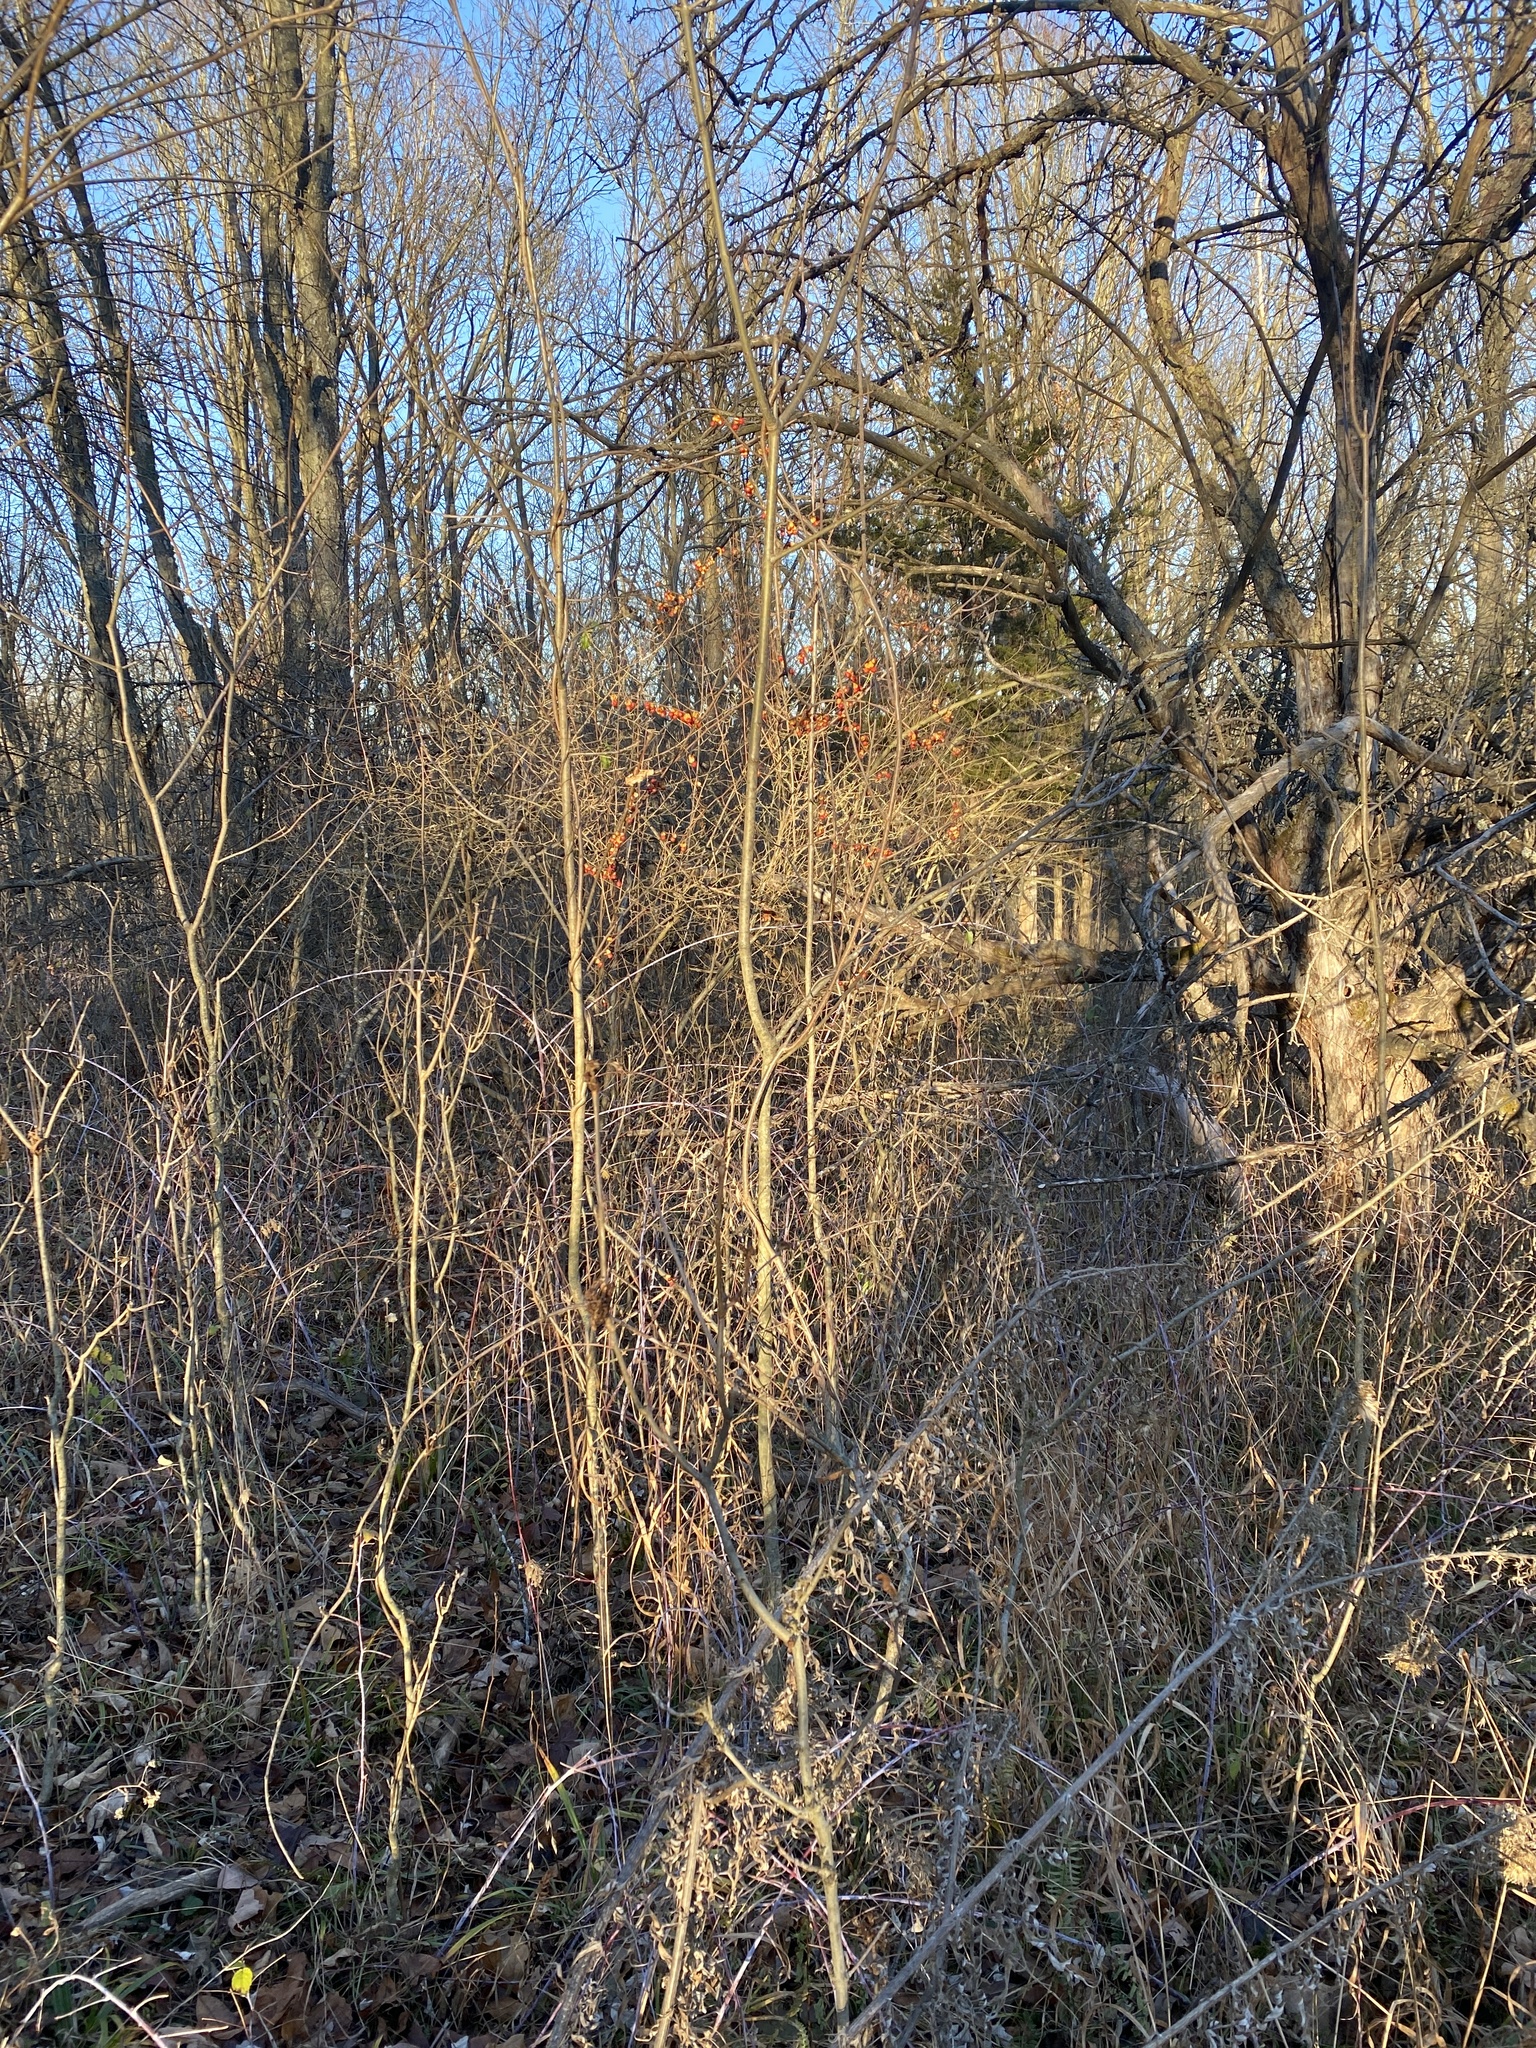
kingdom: Plantae
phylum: Tracheophyta
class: Magnoliopsida
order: Celastrales
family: Celastraceae
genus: Celastrus
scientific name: Celastrus orbiculatus
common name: Oriental bittersweet
